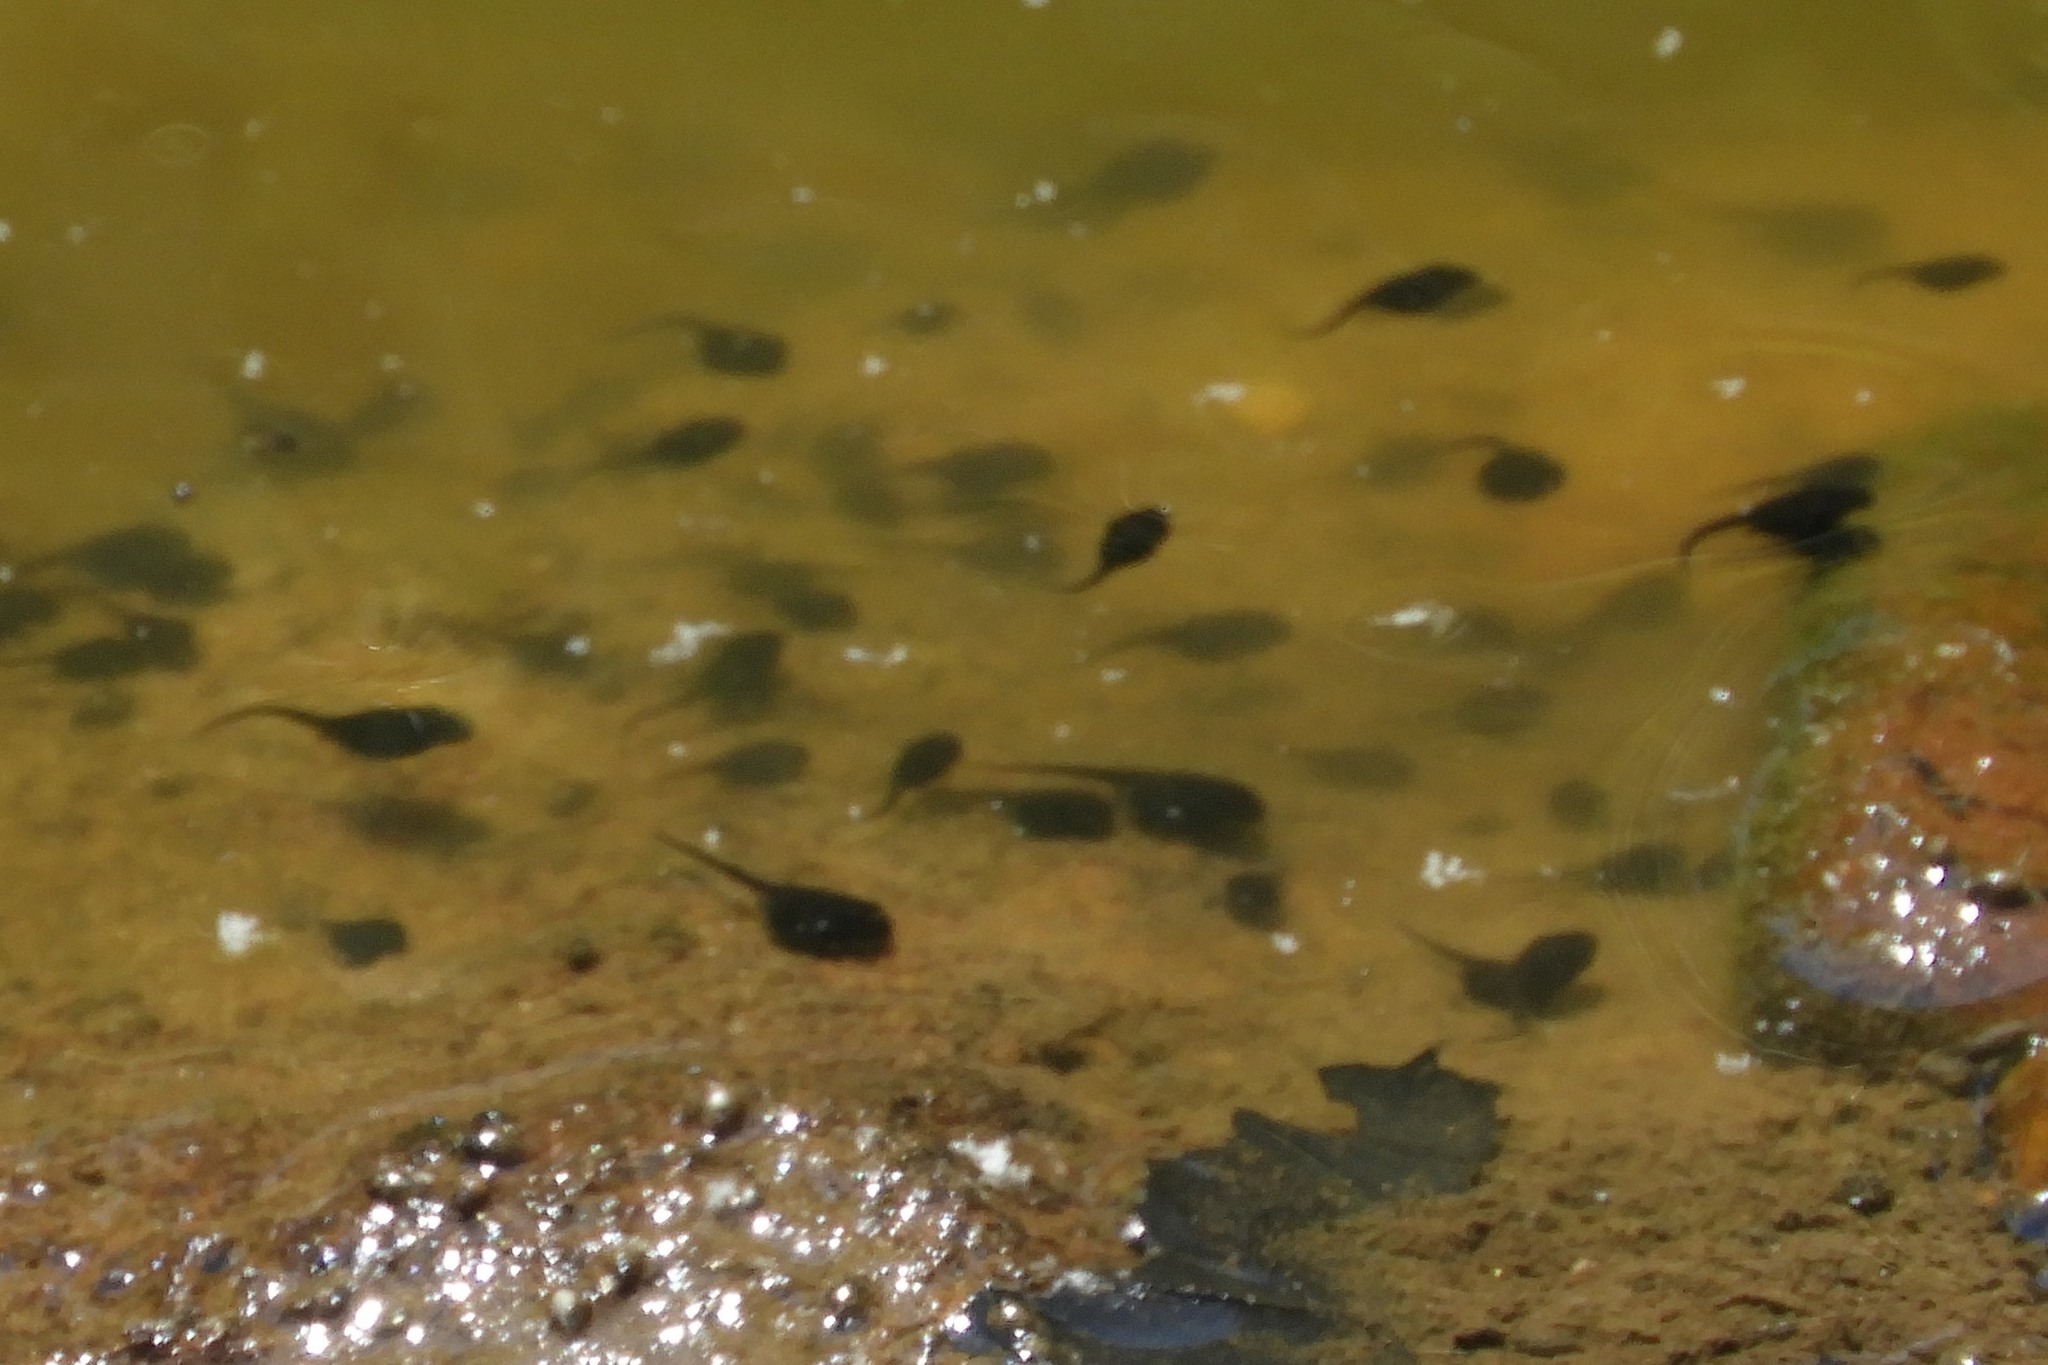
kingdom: Animalia
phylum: Chordata
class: Amphibia
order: Anura
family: Ranidae
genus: Lithobates
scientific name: Lithobates catesbeianus
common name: American bullfrog
